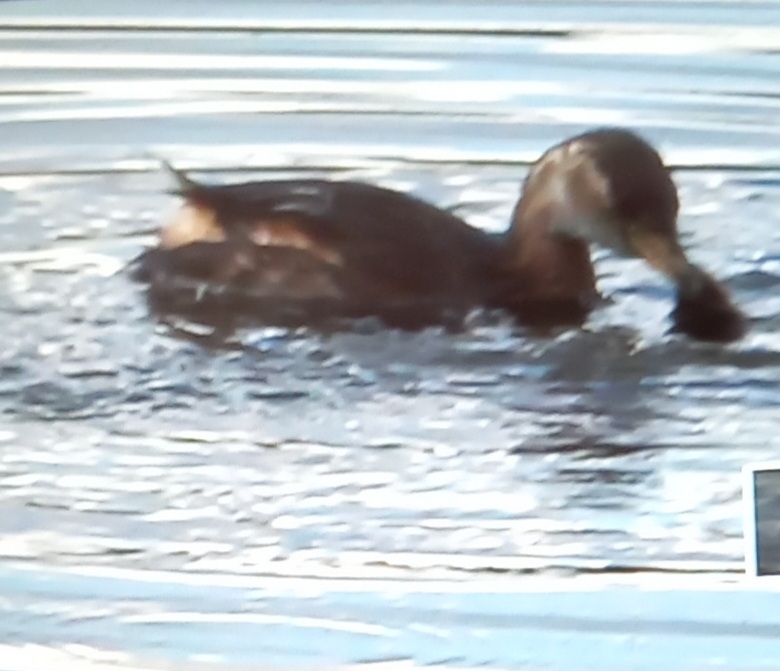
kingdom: Animalia
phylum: Chordata
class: Aves
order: Podicipediformes
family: Podicipedidae
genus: Tachybaptus
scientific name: Tachybaptus ruficollis
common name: Little grebe
